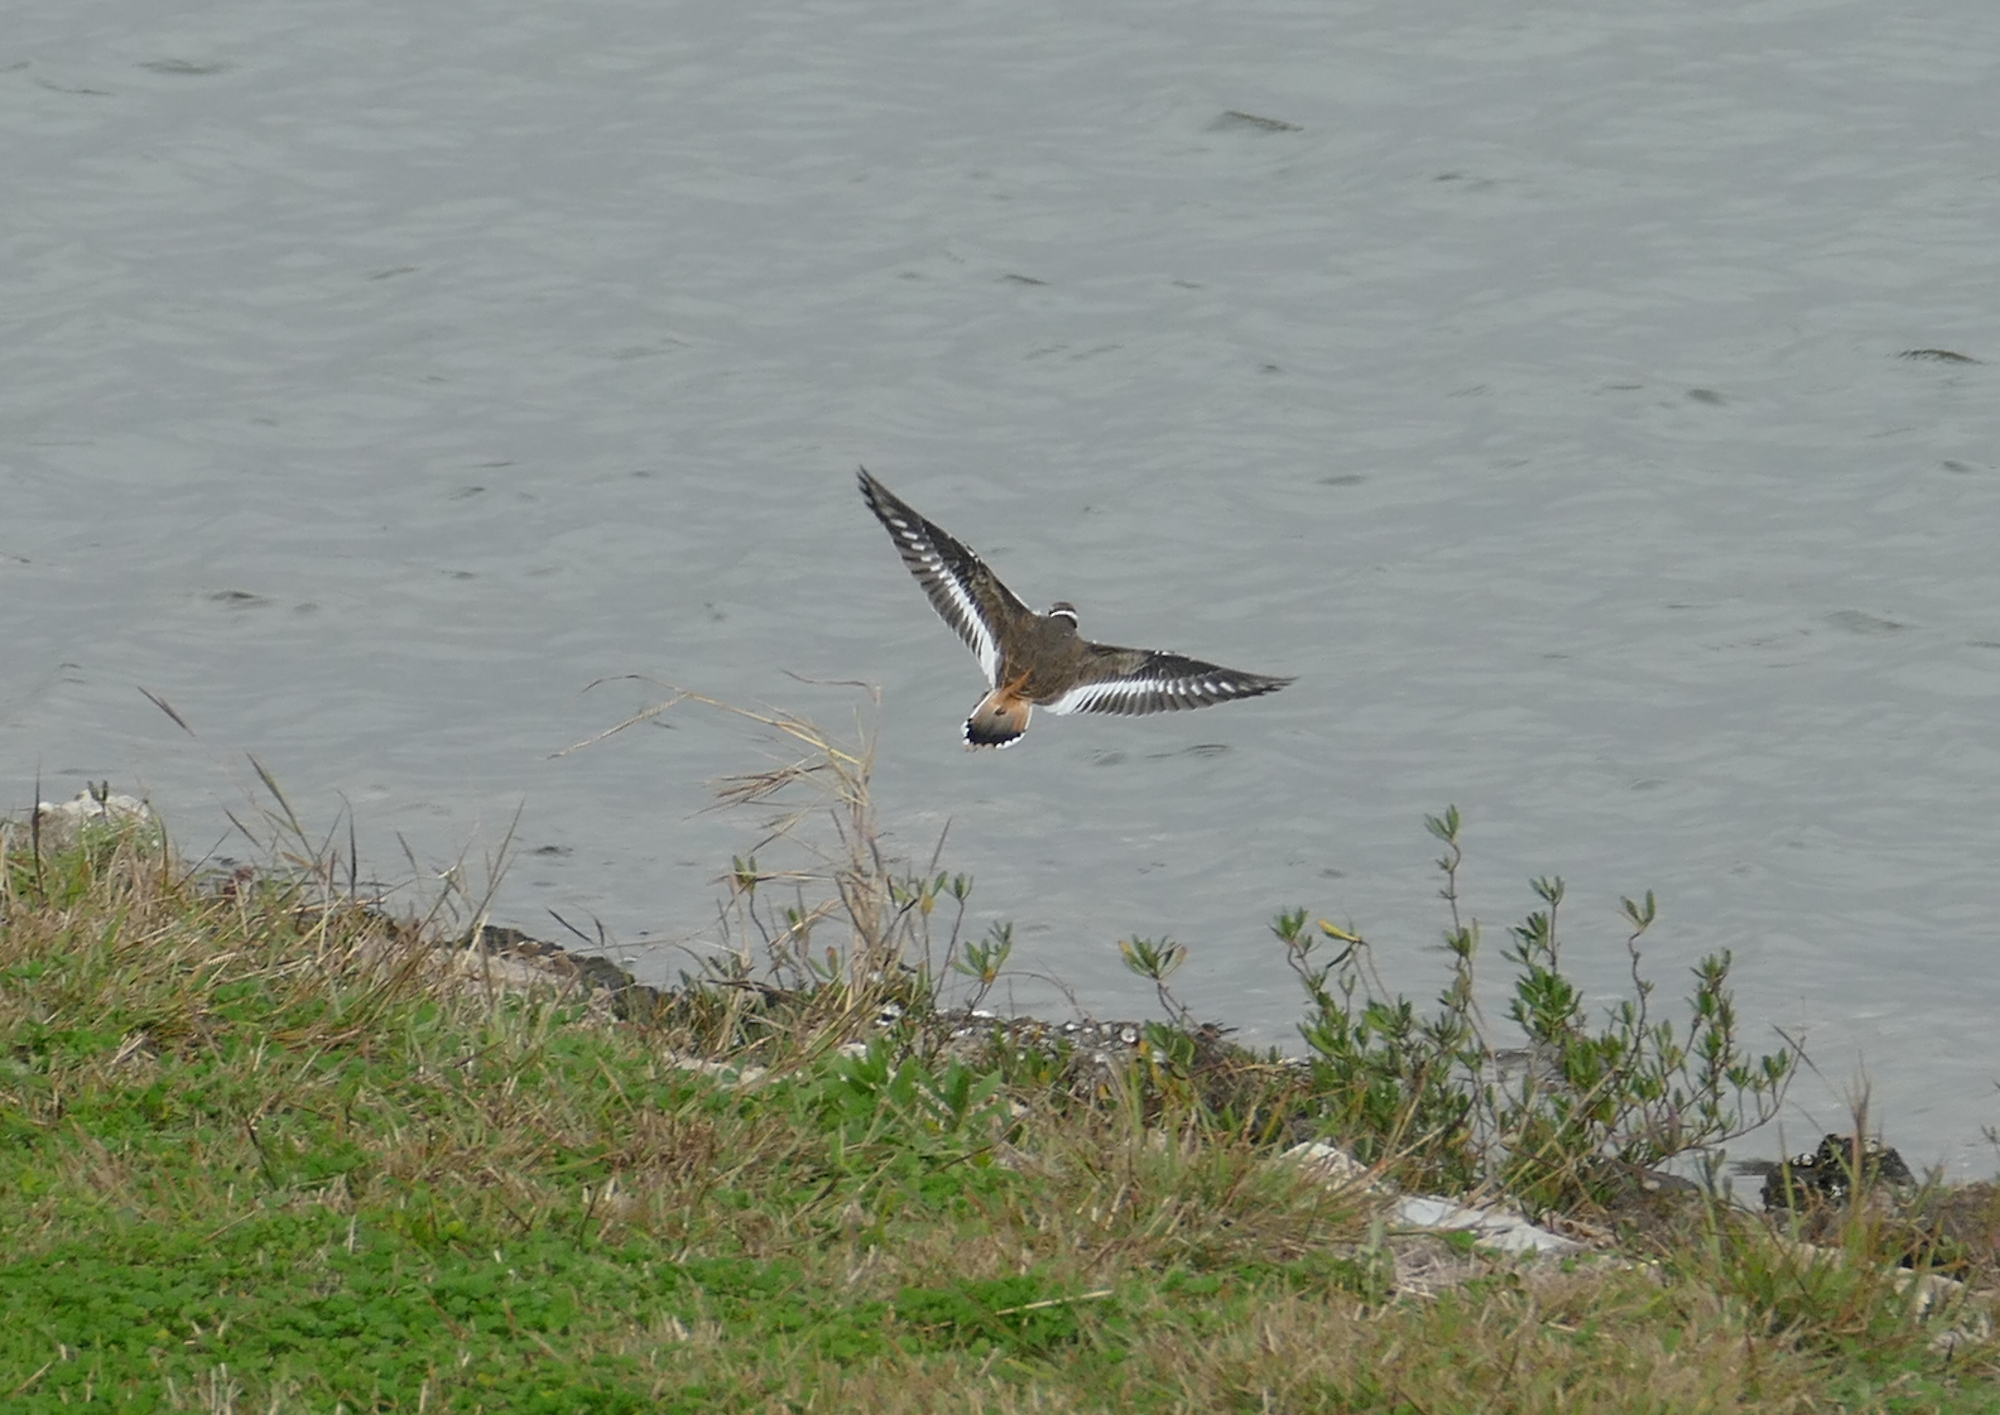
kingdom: Animalia
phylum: Chordata
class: Aves
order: Charadriiformes
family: Charadriidae
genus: Charadrius
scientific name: Charadrius vociferus
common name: Killdeer
